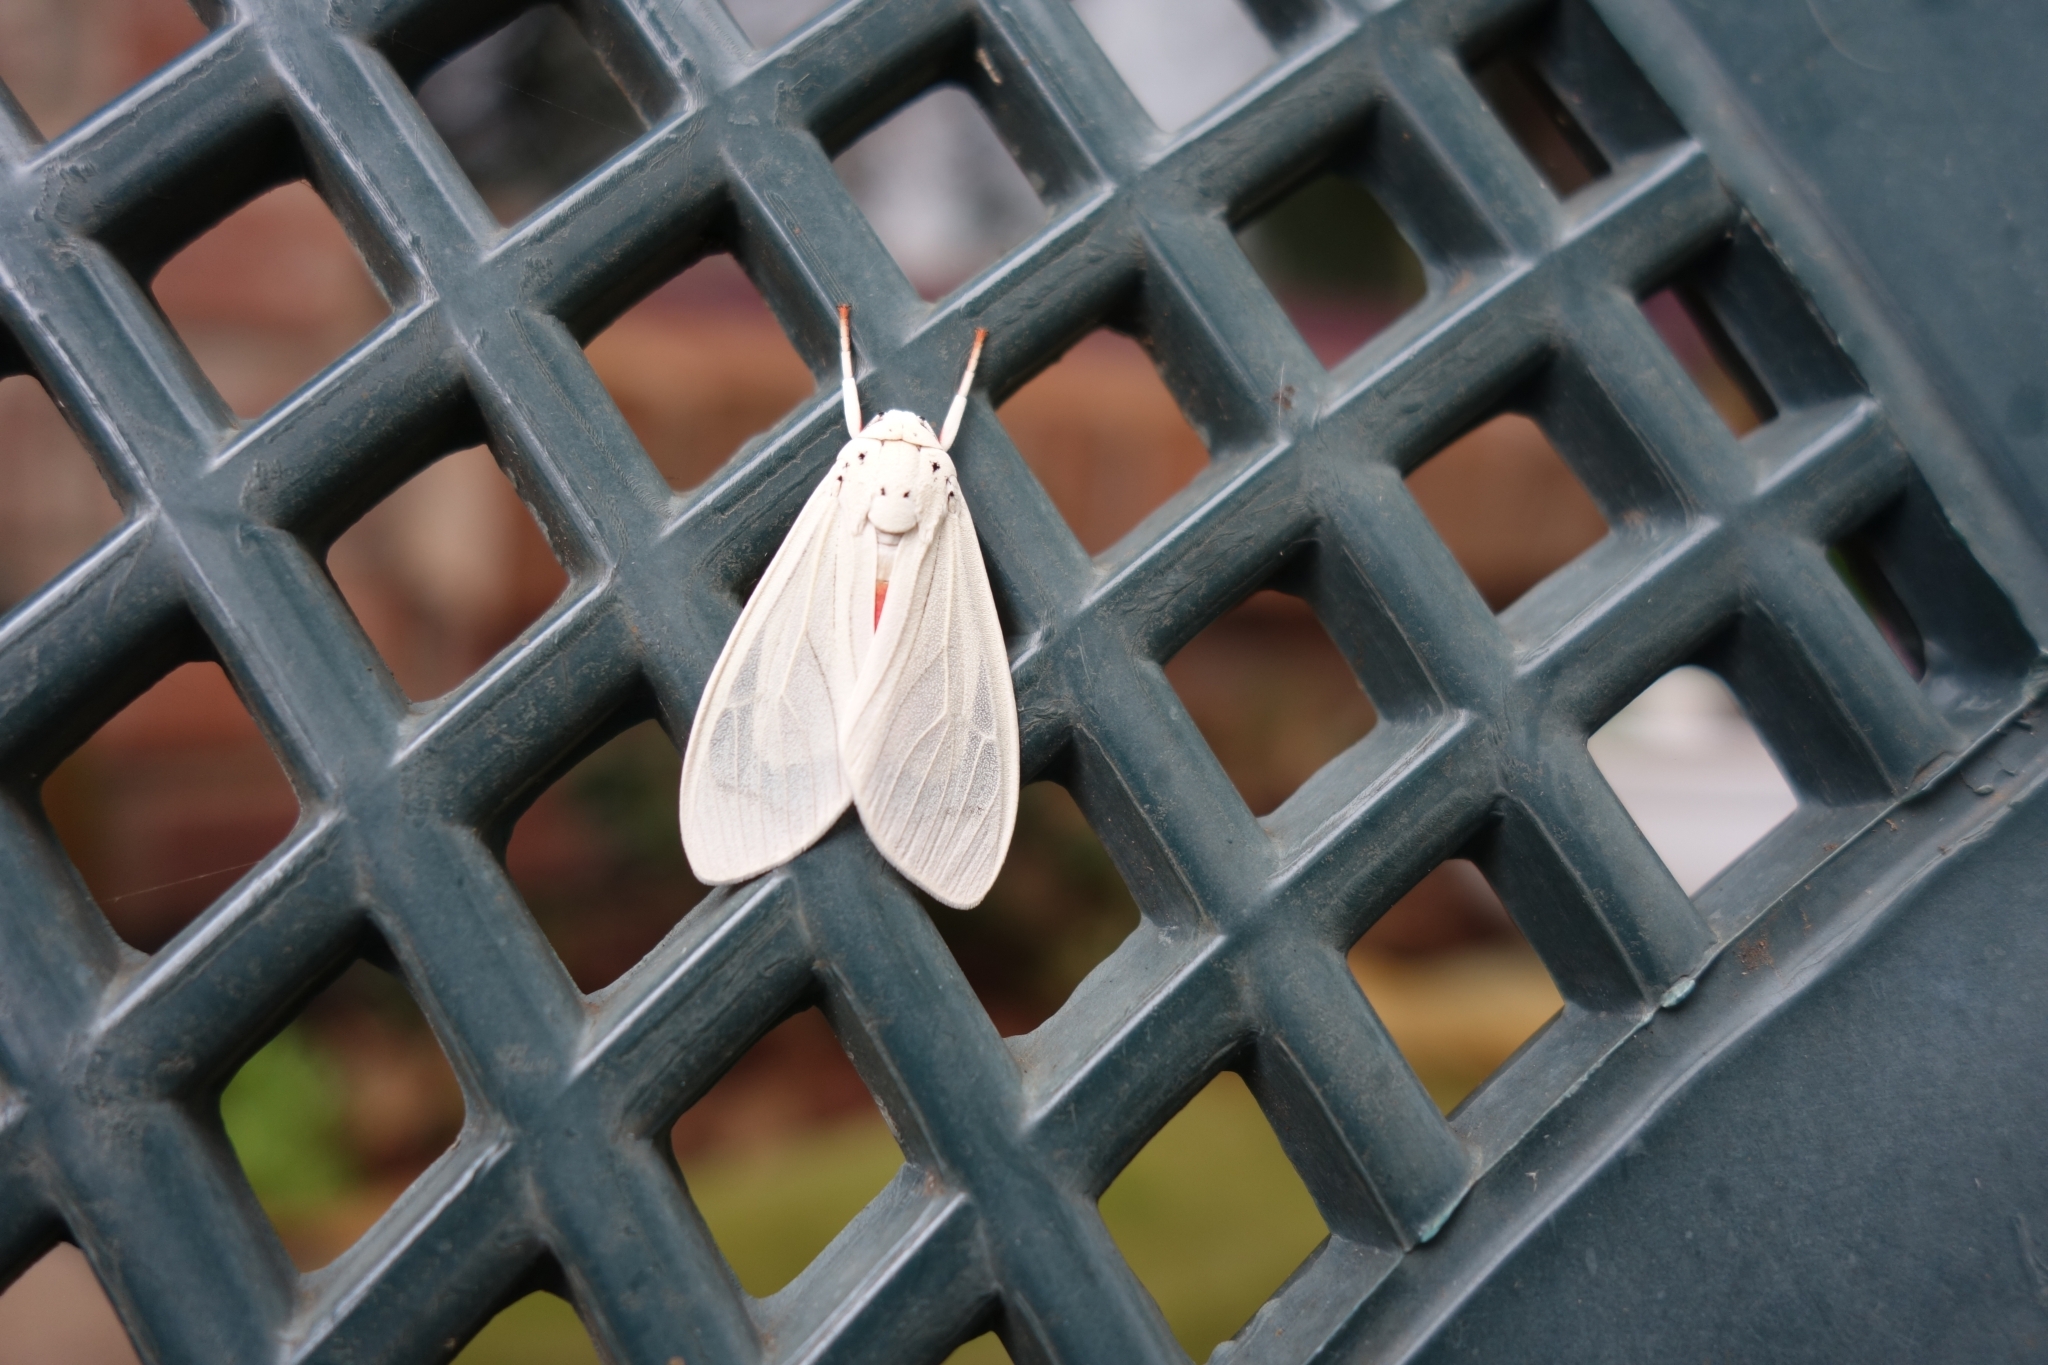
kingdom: Animalia
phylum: Arthropoda
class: Insecta
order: Lepidoptera
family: Erebidae
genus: Amerila
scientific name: Amerila phaedra
